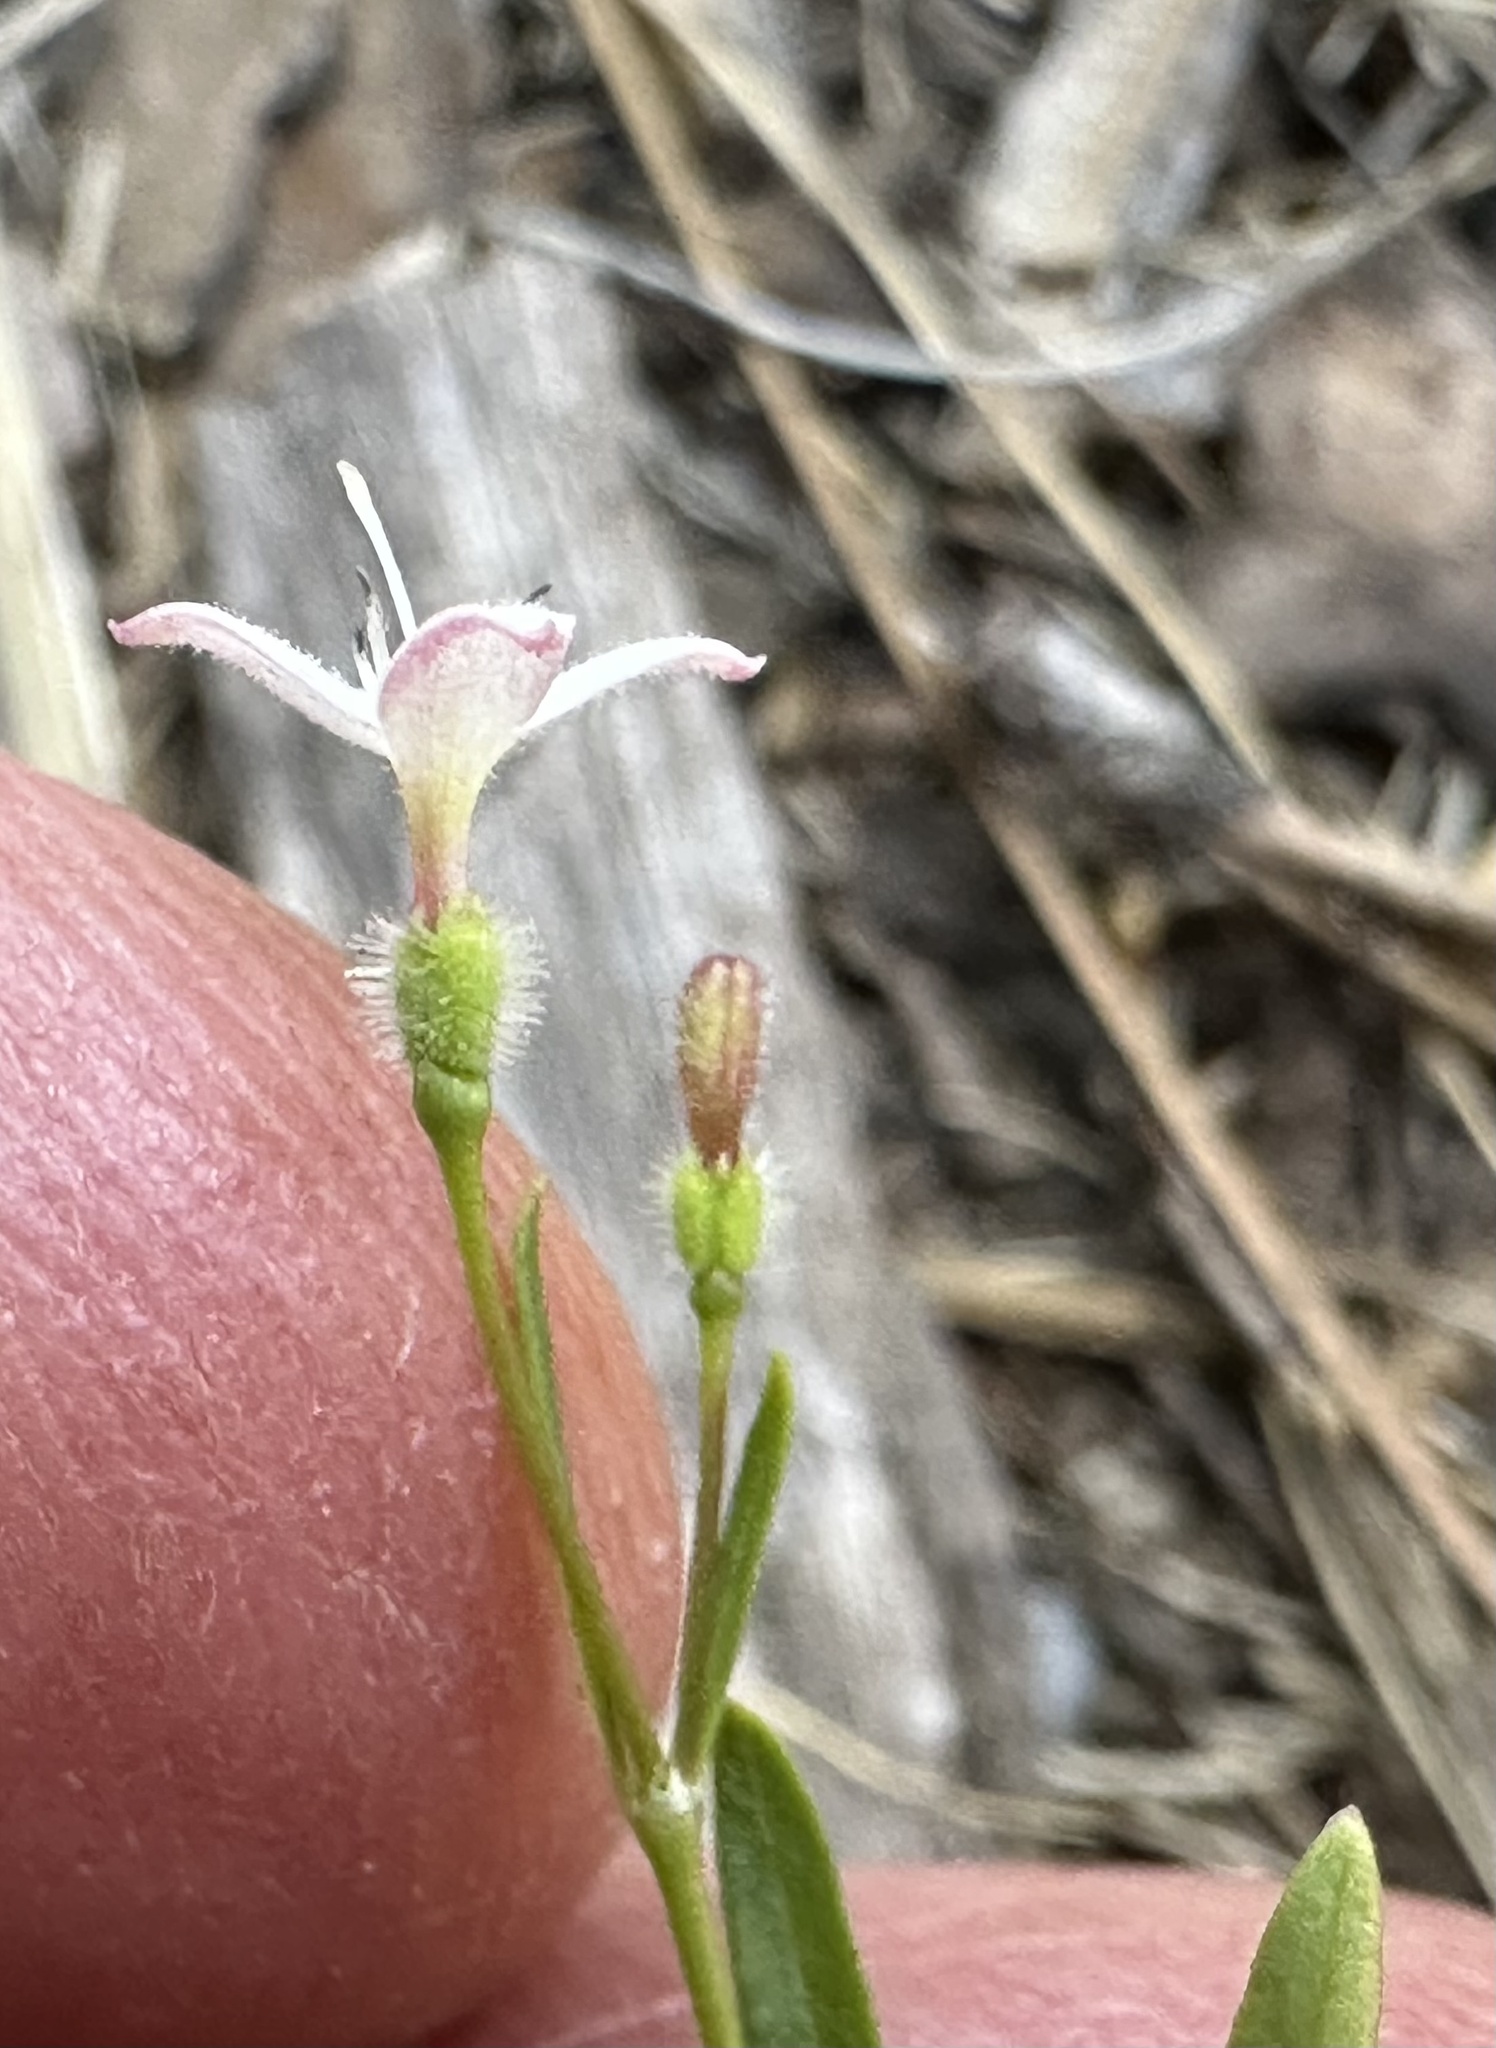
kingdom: Plantae
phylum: Tracheophyta
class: Magnoliopsida
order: Gentianales
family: Rubiaceae
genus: Kelloggia
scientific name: Kelloggia galioides
